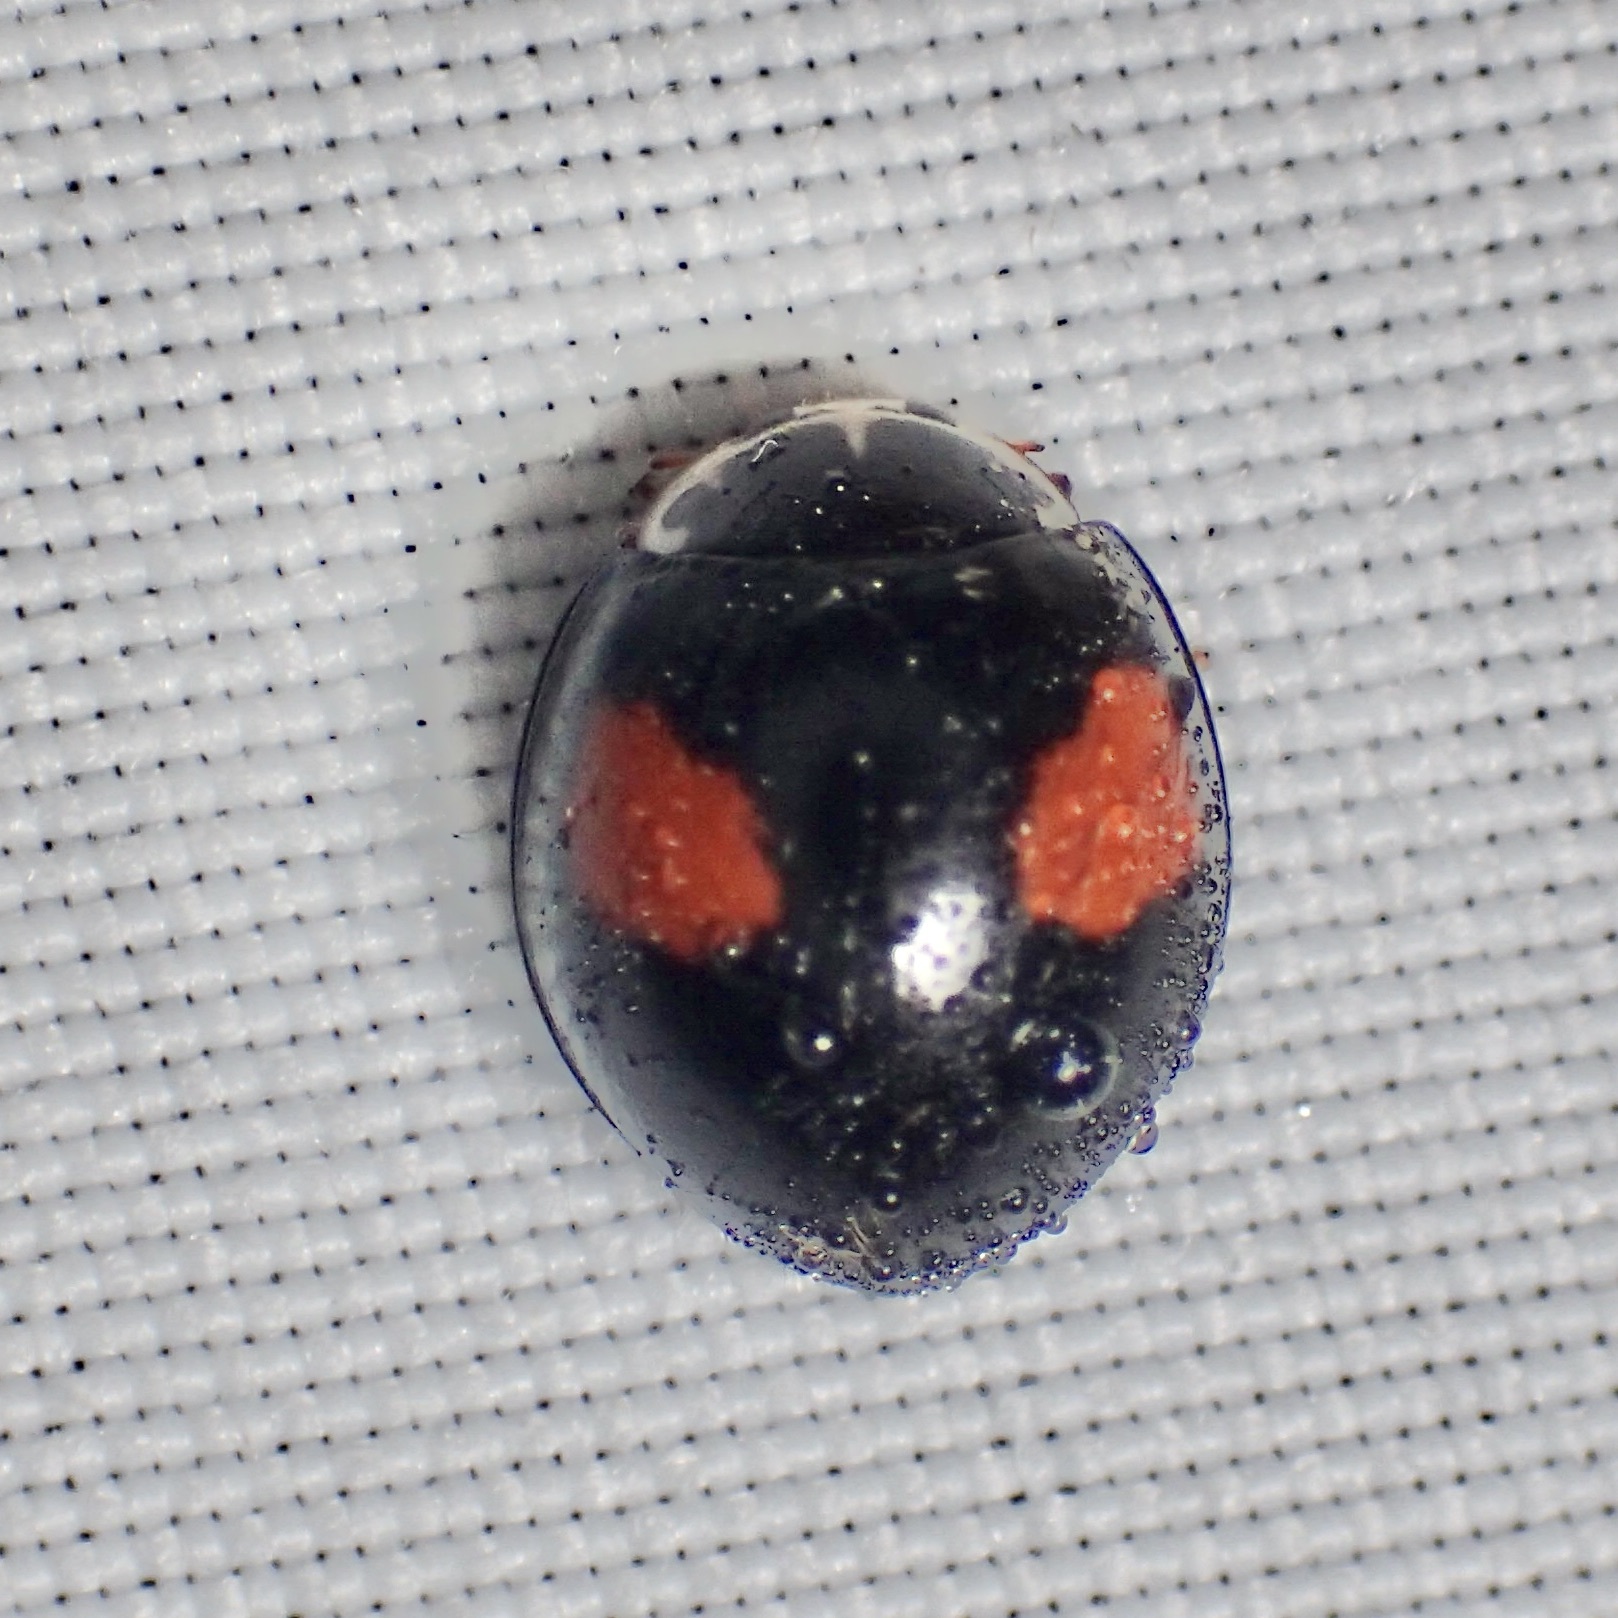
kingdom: Animalia
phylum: Arthropoda
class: Insecta
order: Coleoptera
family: Coccinellidae
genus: Olla
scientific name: Olla v-nigrum
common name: Ashy gray lady beetle
